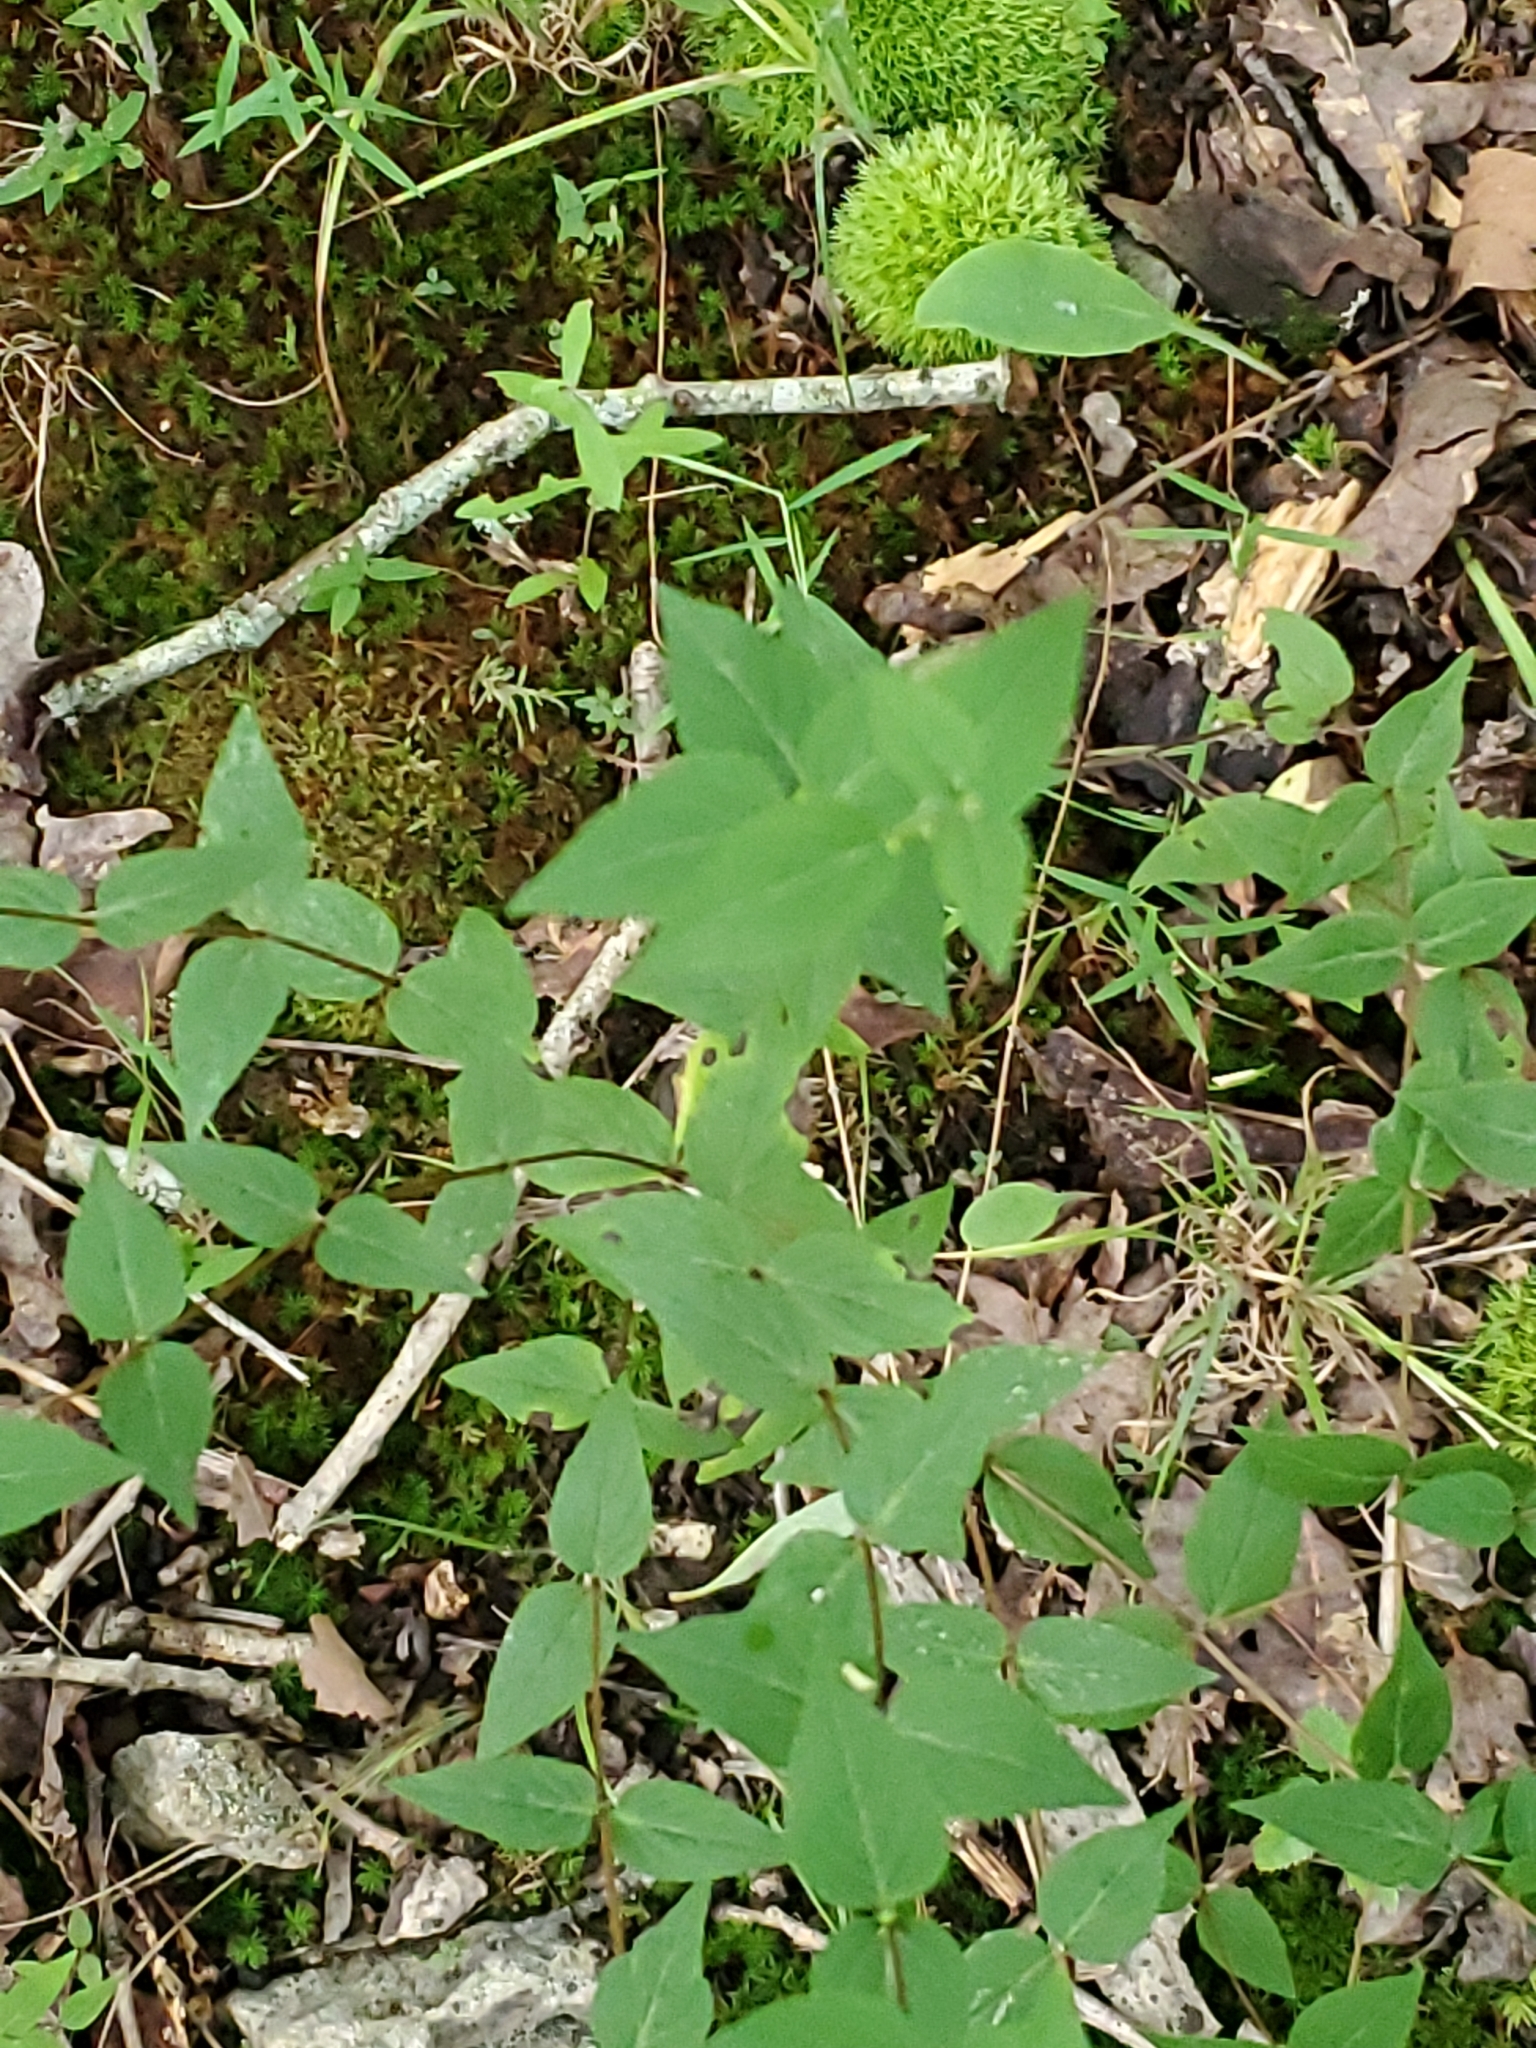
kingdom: Plantae
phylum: Tracheophyta
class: Magnoliopsida
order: Lamiales
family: Lamiaceae
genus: Cunila
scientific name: Cunila origanoides
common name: American dittany
